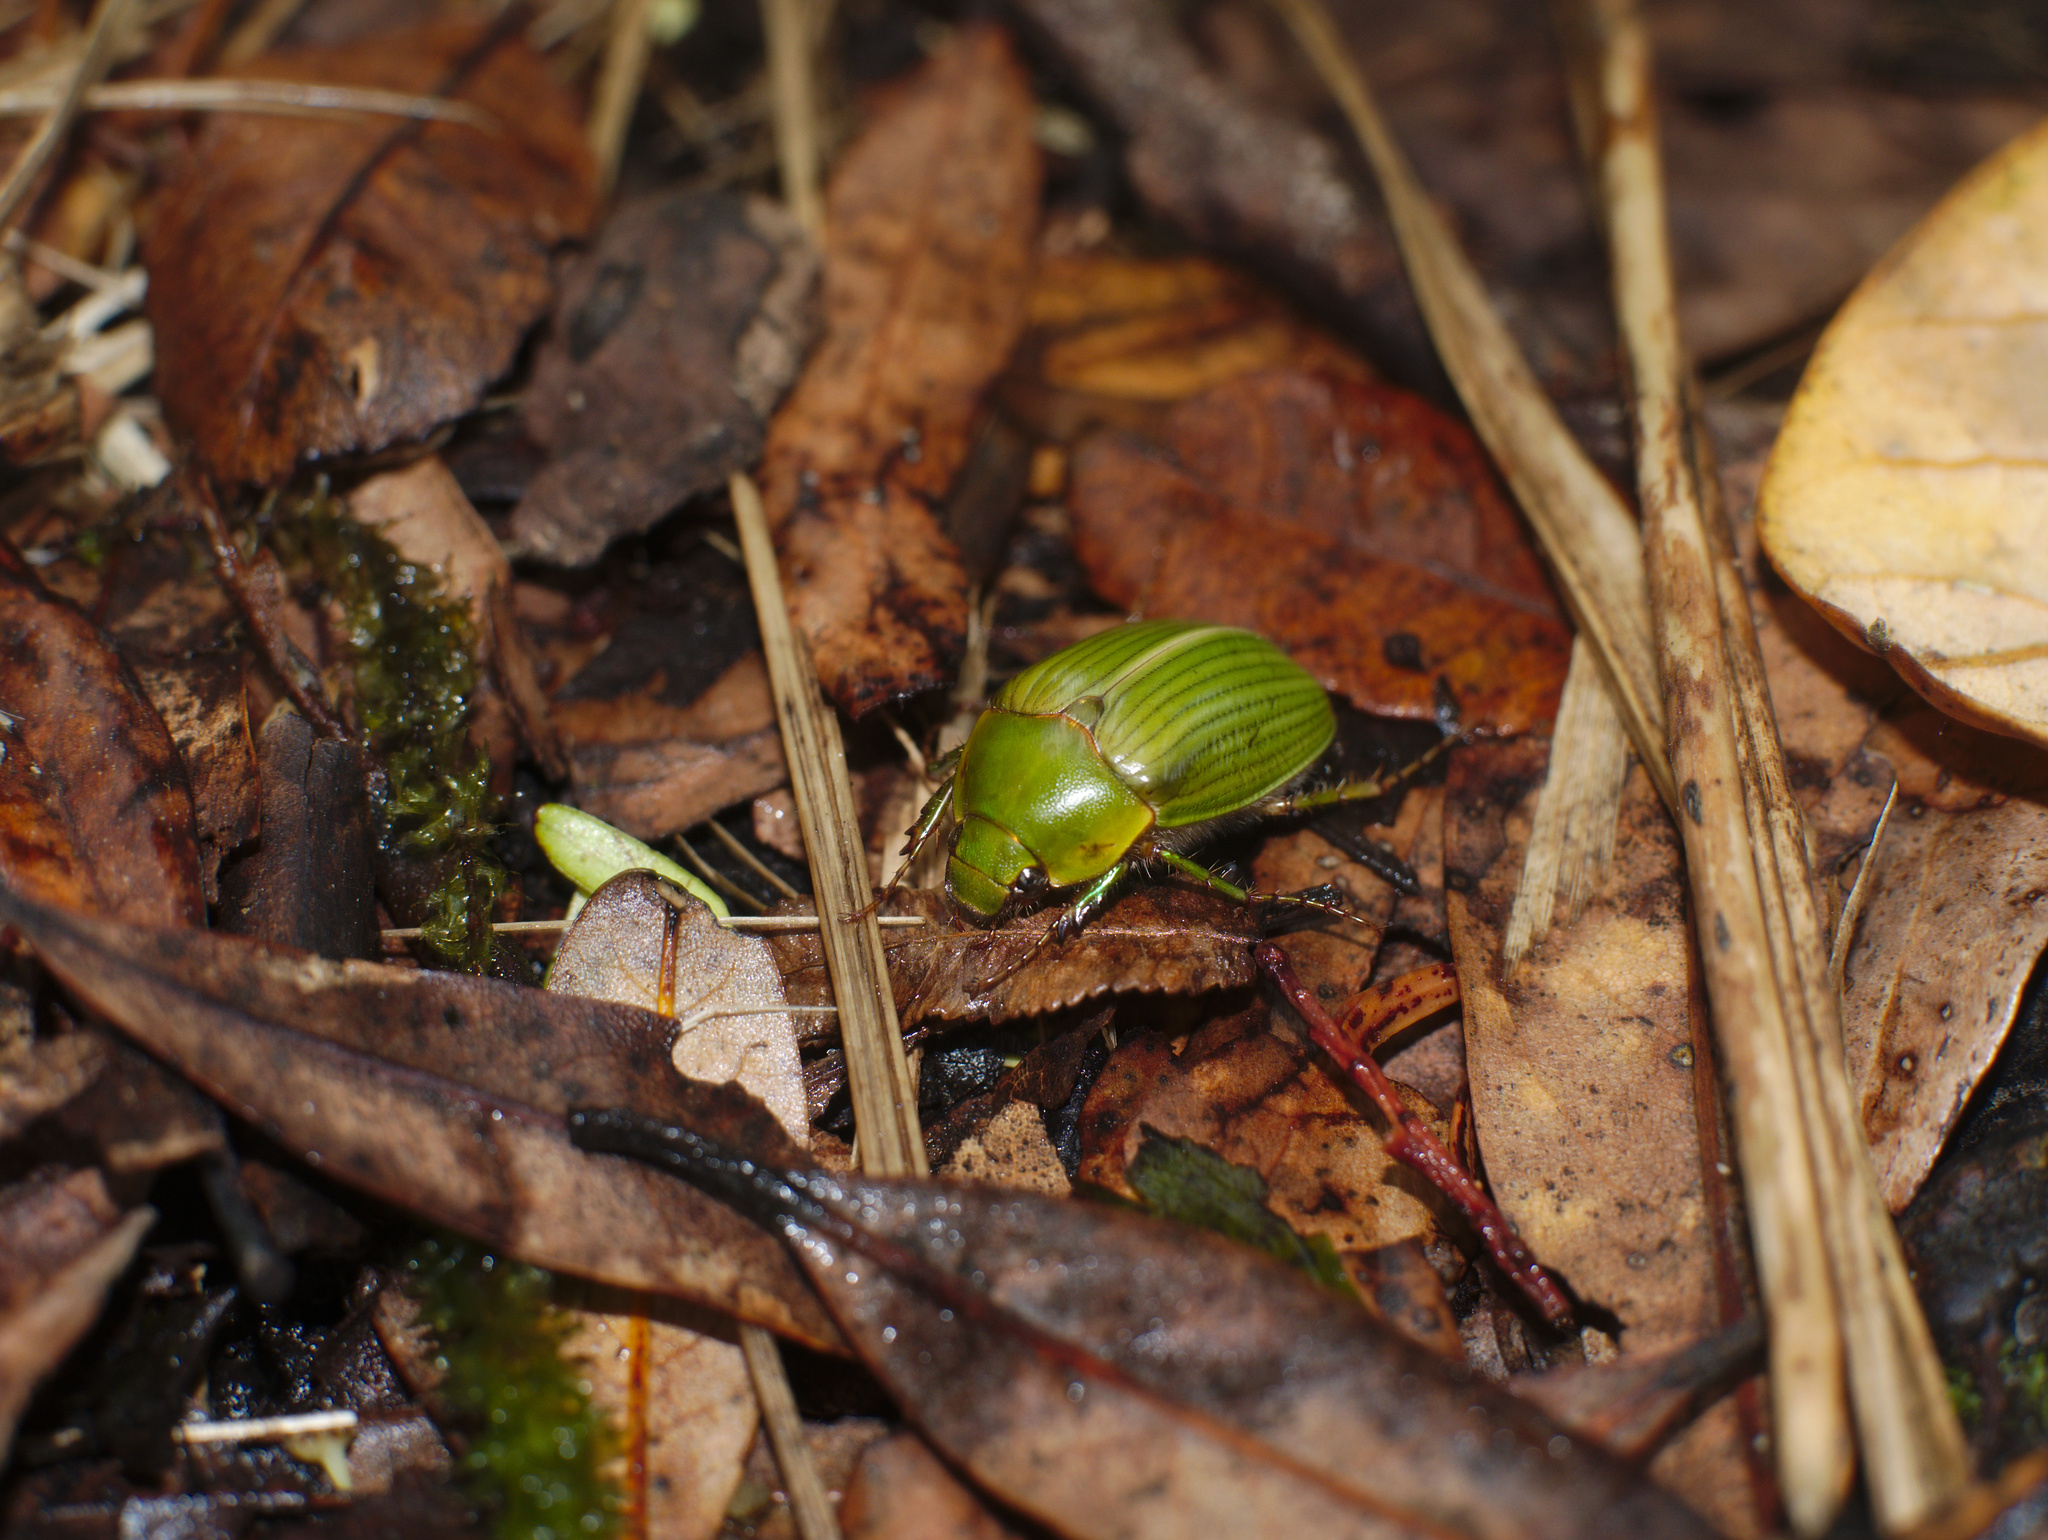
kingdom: Animalia
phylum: Arthropoda
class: Insecta
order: Coleoptera
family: Scarabaeidae
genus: Stethaspis
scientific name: Stethaspis longicornis
